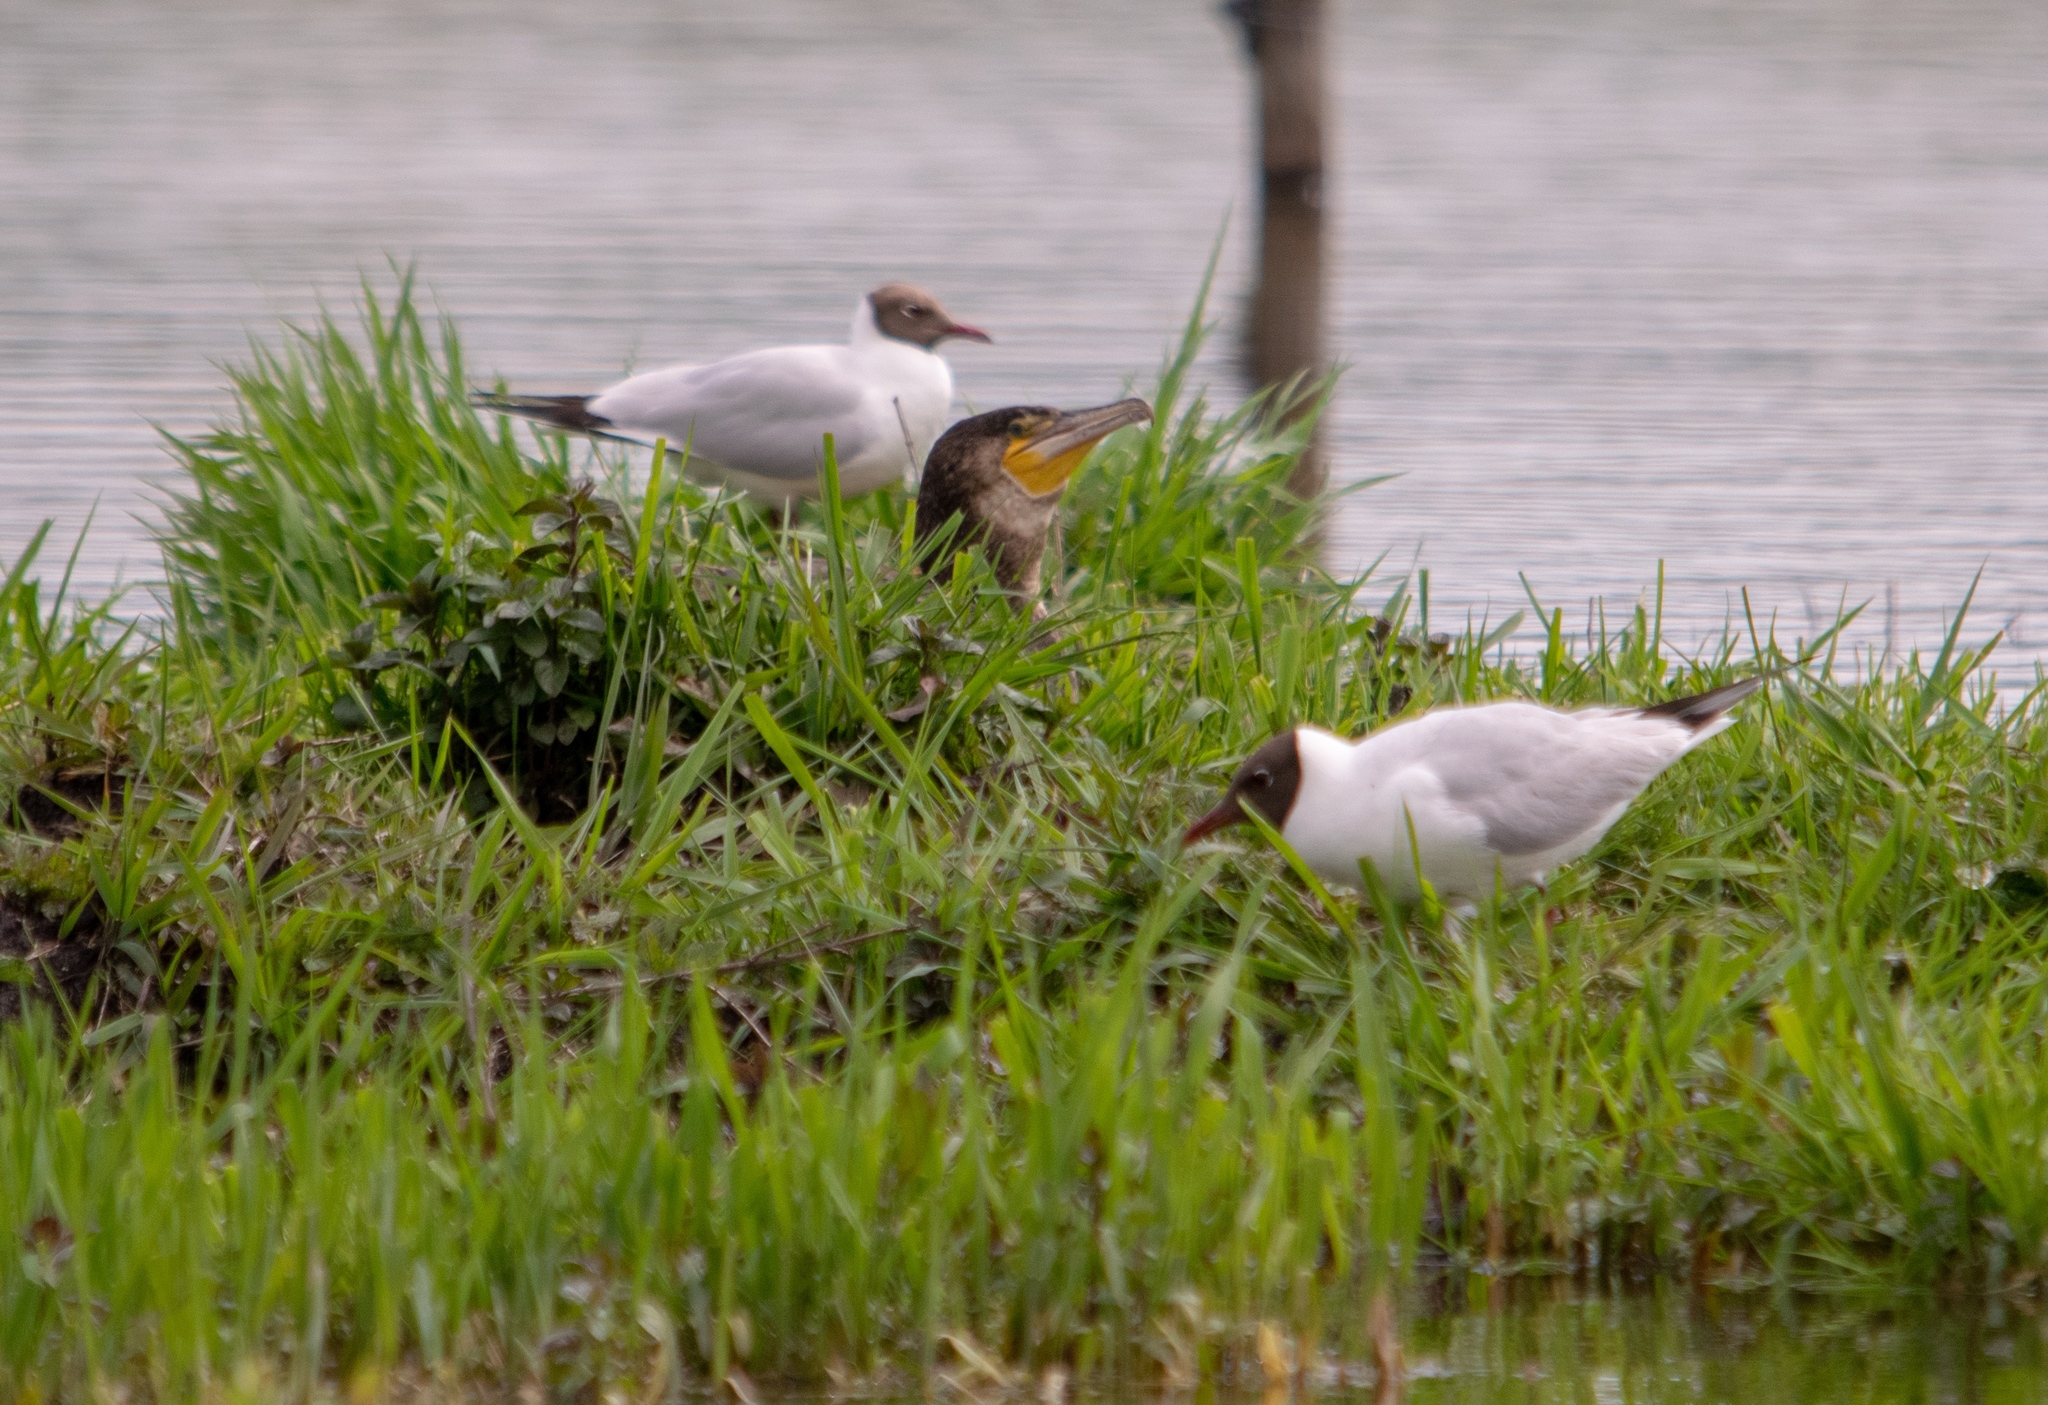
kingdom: Animalia
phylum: Chordata
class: Aves
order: Suliformes
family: Phalacrocoracidae
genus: Phalacrocorax
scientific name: Phalacrocorax carbo
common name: Great cormorant
